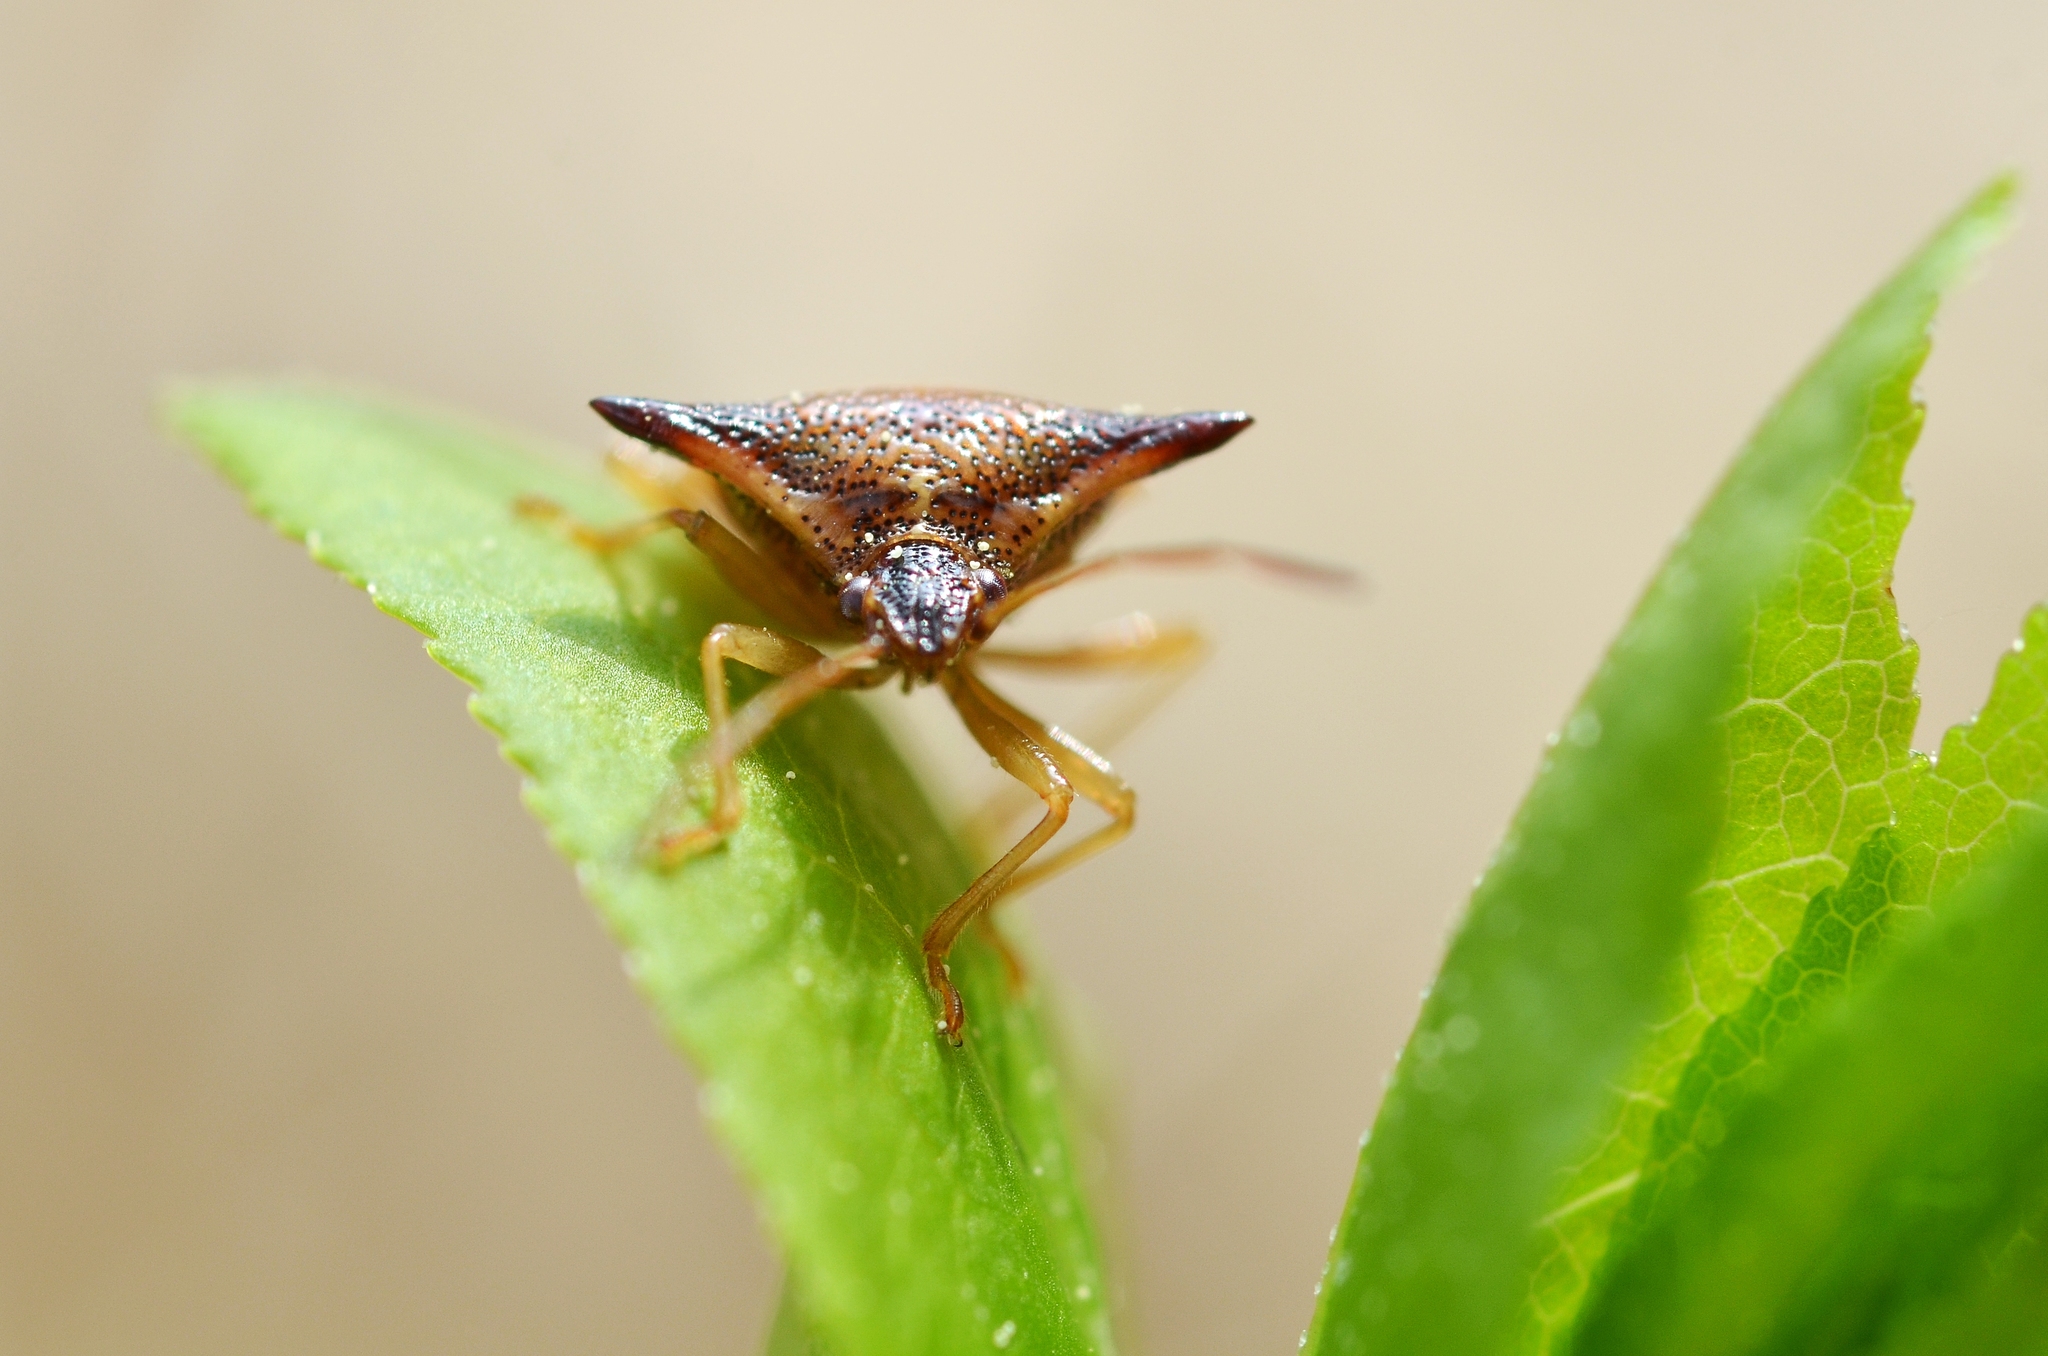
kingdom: Animalia
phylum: Arthropoda
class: Insecta
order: Hemiptera
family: Acanthosomatidae
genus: Elasmucha
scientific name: Elasmucha ferrugata
